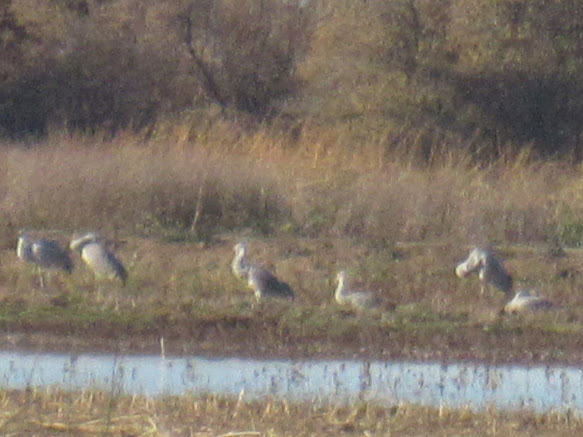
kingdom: Animalia
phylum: Chordata
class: Aves
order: Gruiformes
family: Gruidae
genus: Grus
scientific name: Grus canadensis
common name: Sandhill crane
